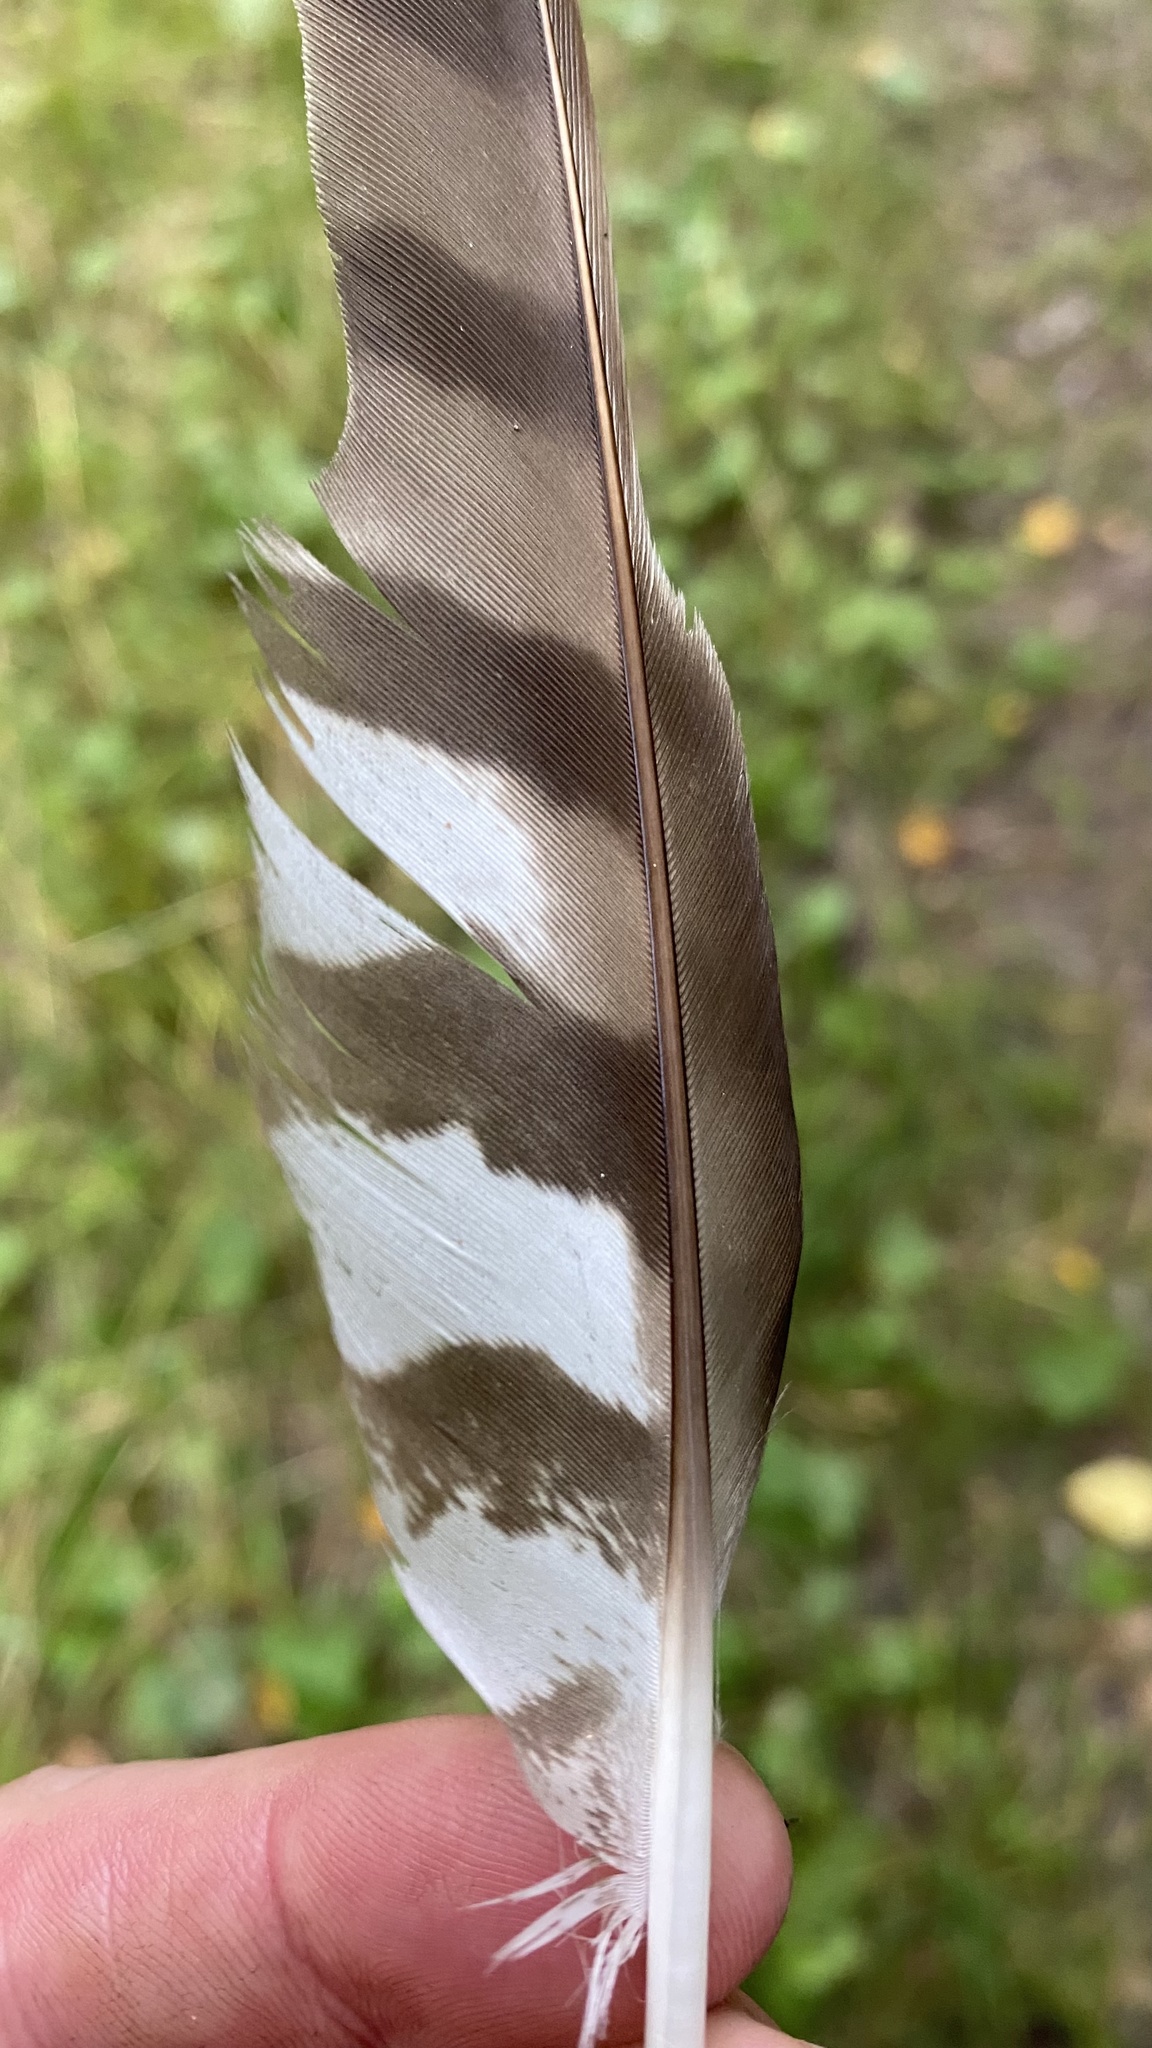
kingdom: Animalia
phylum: Chordata
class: Aves
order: Accipitriformes
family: Accipitridae
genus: Accipiter
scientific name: Accipiter nisus
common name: Eurasian sparrowhawk
